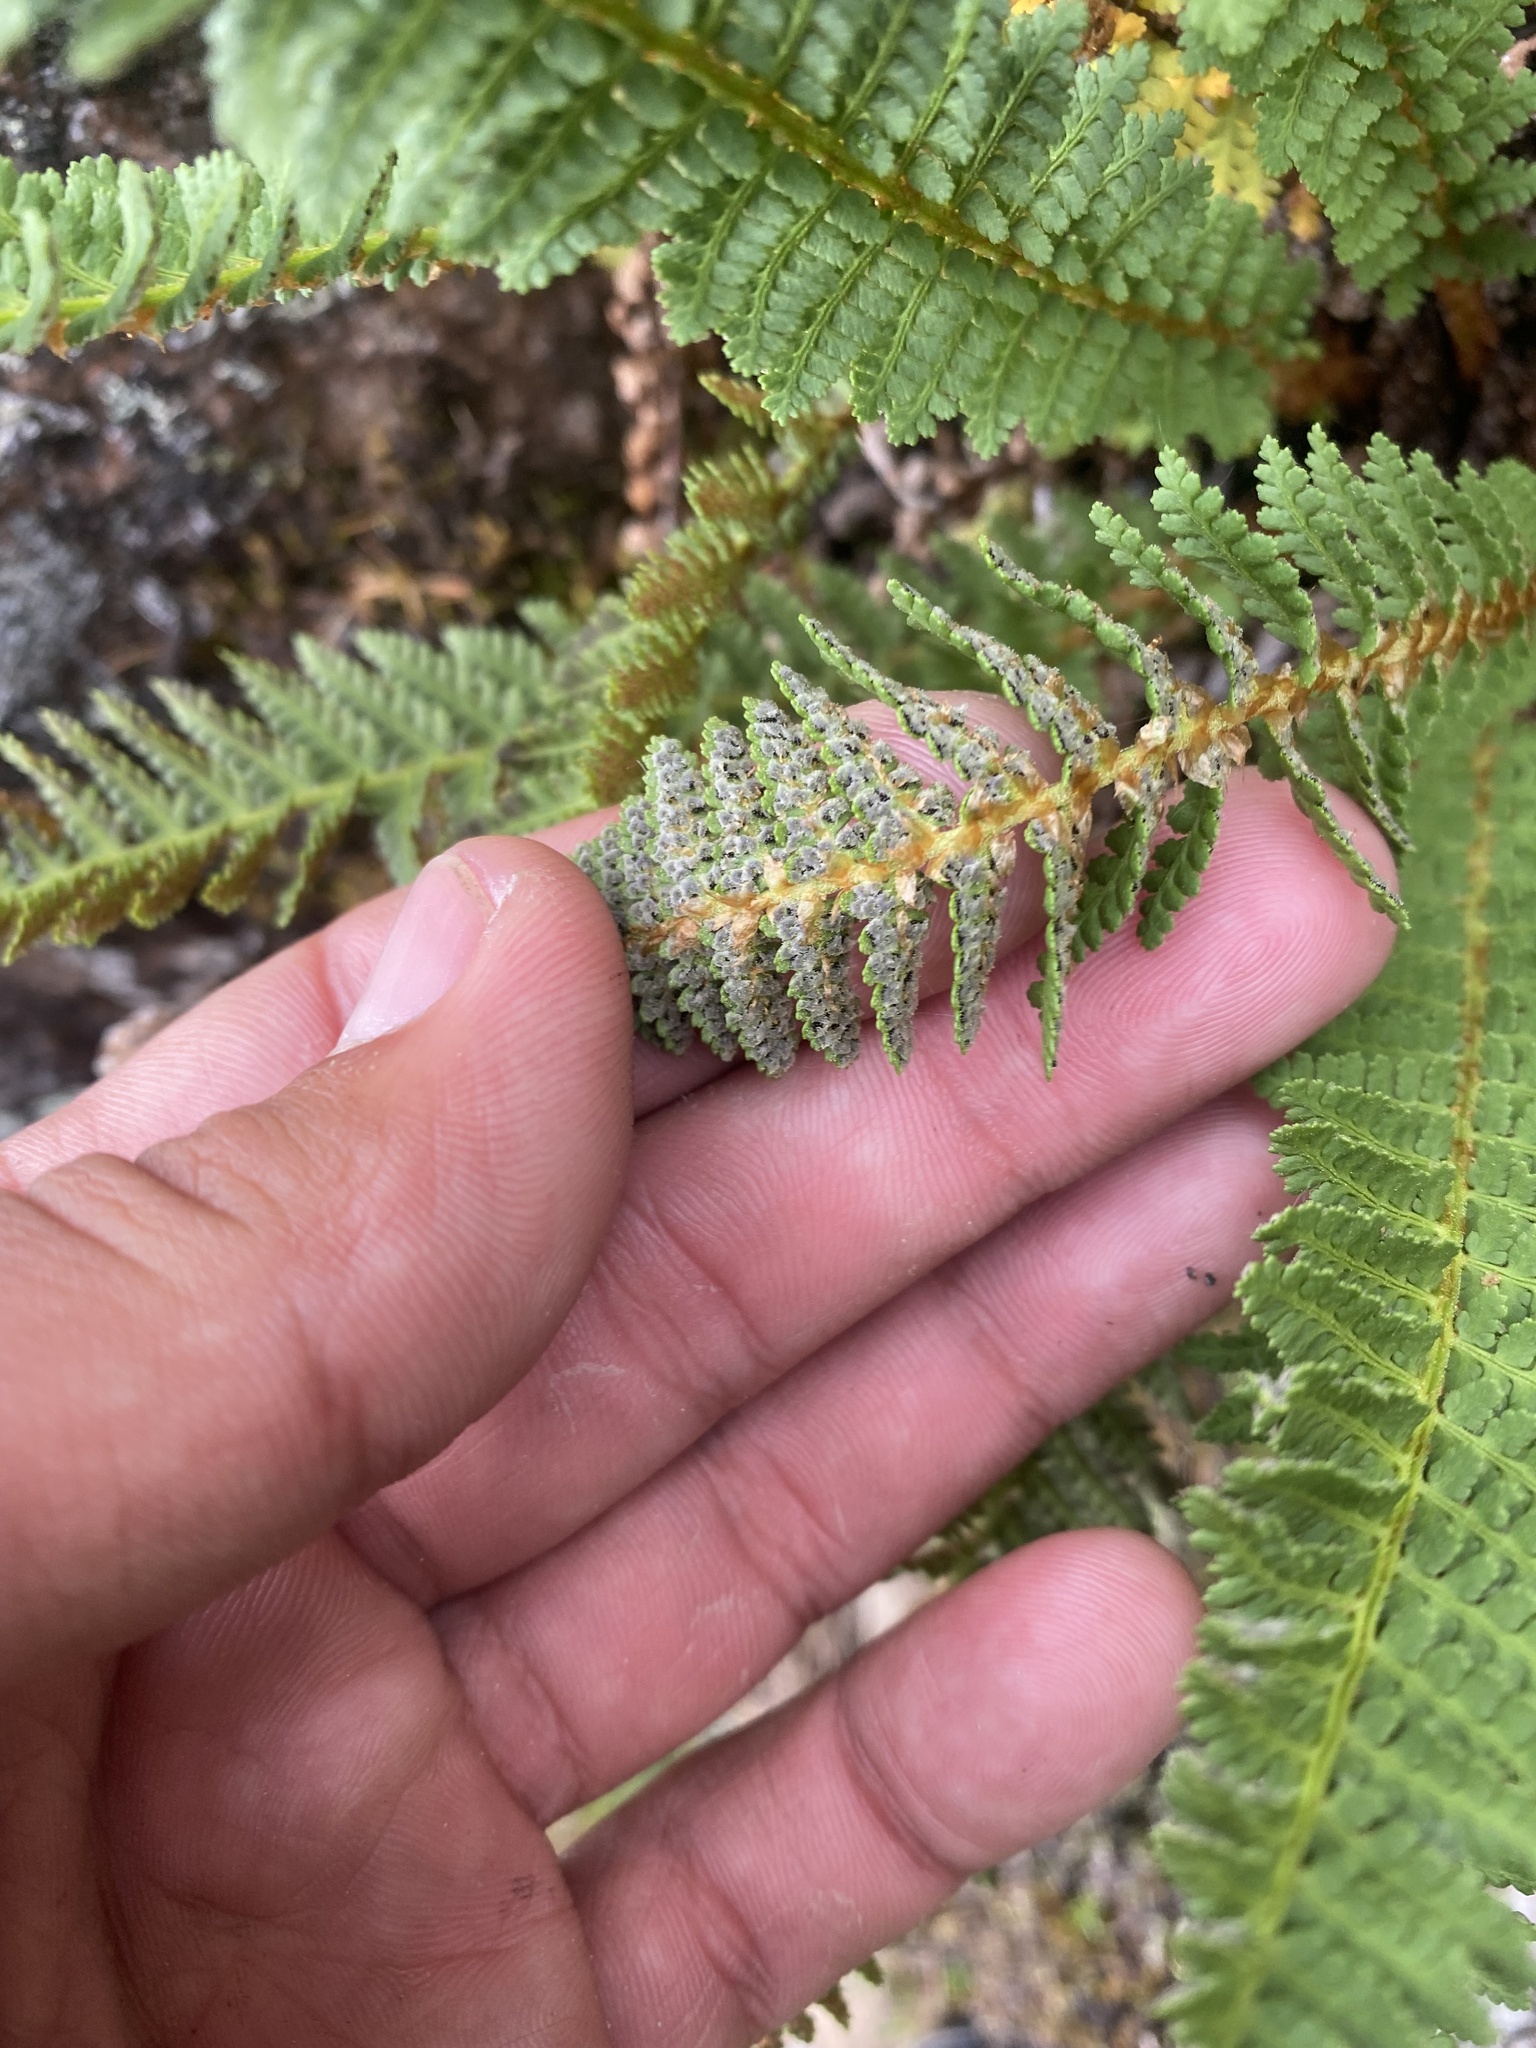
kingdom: Plantae
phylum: Tracheophyta
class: Polypodiopsida
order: Polypodiales
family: Dryopteridaceae
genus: Dryopteris
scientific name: Dryopteris fragrans
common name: Fragrant wood fern
